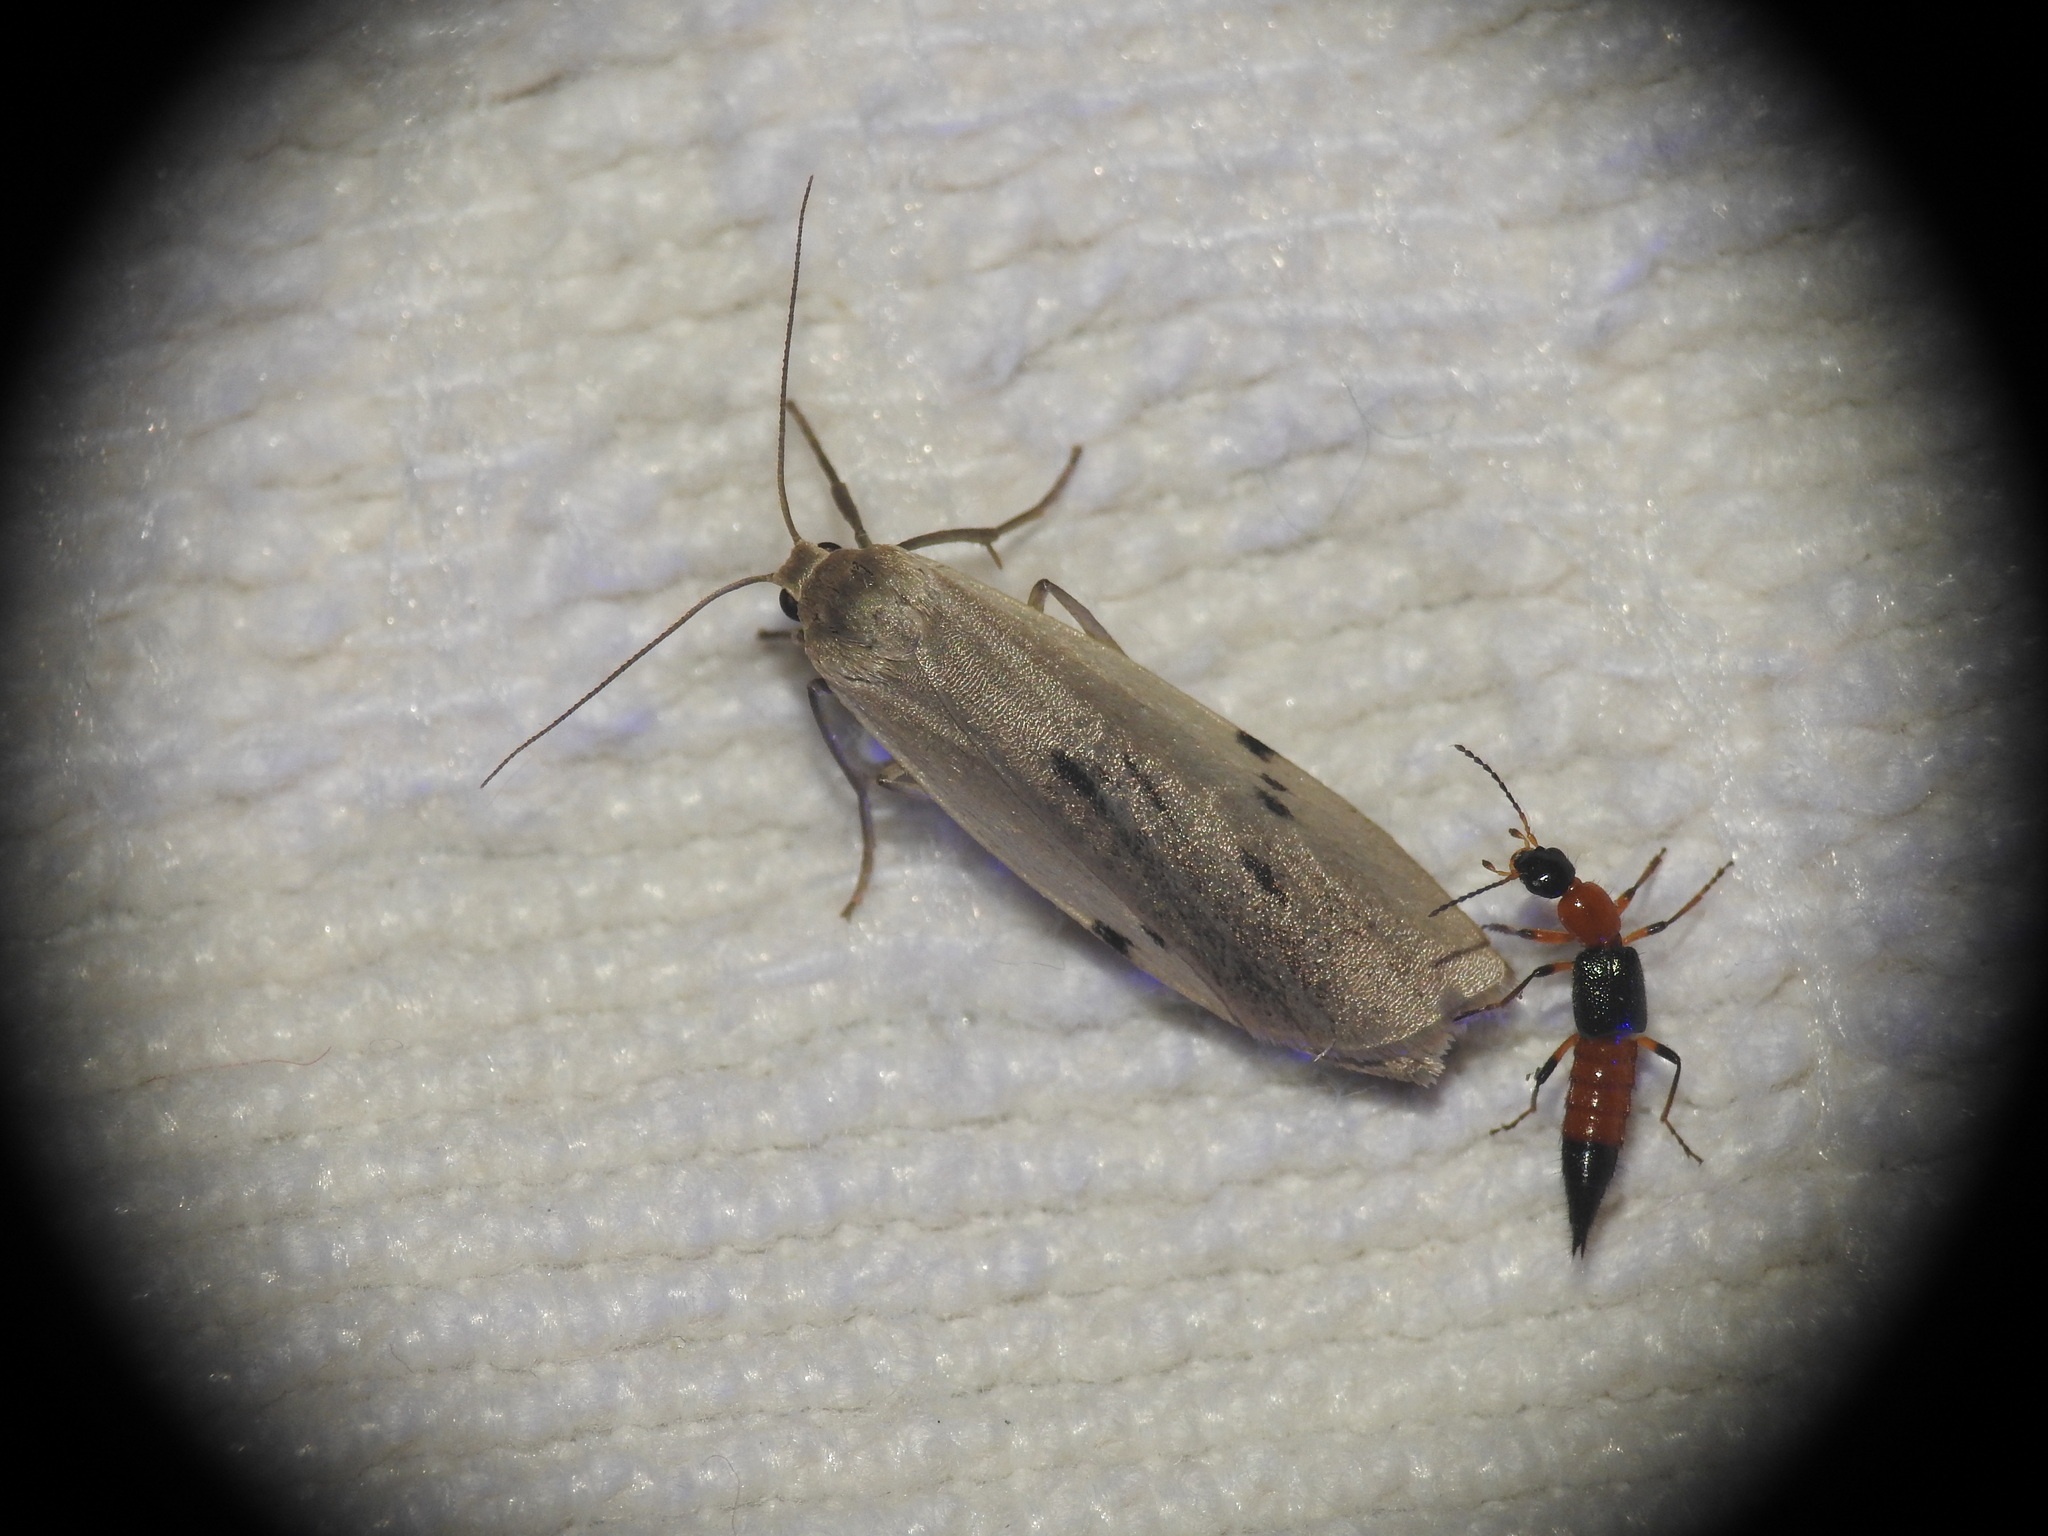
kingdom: Animalia
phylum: Arthropoda
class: Insecta
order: Lepidoptera
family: Erebidae
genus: Pelosia
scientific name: Pelosia muscerda
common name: Dotted footman
